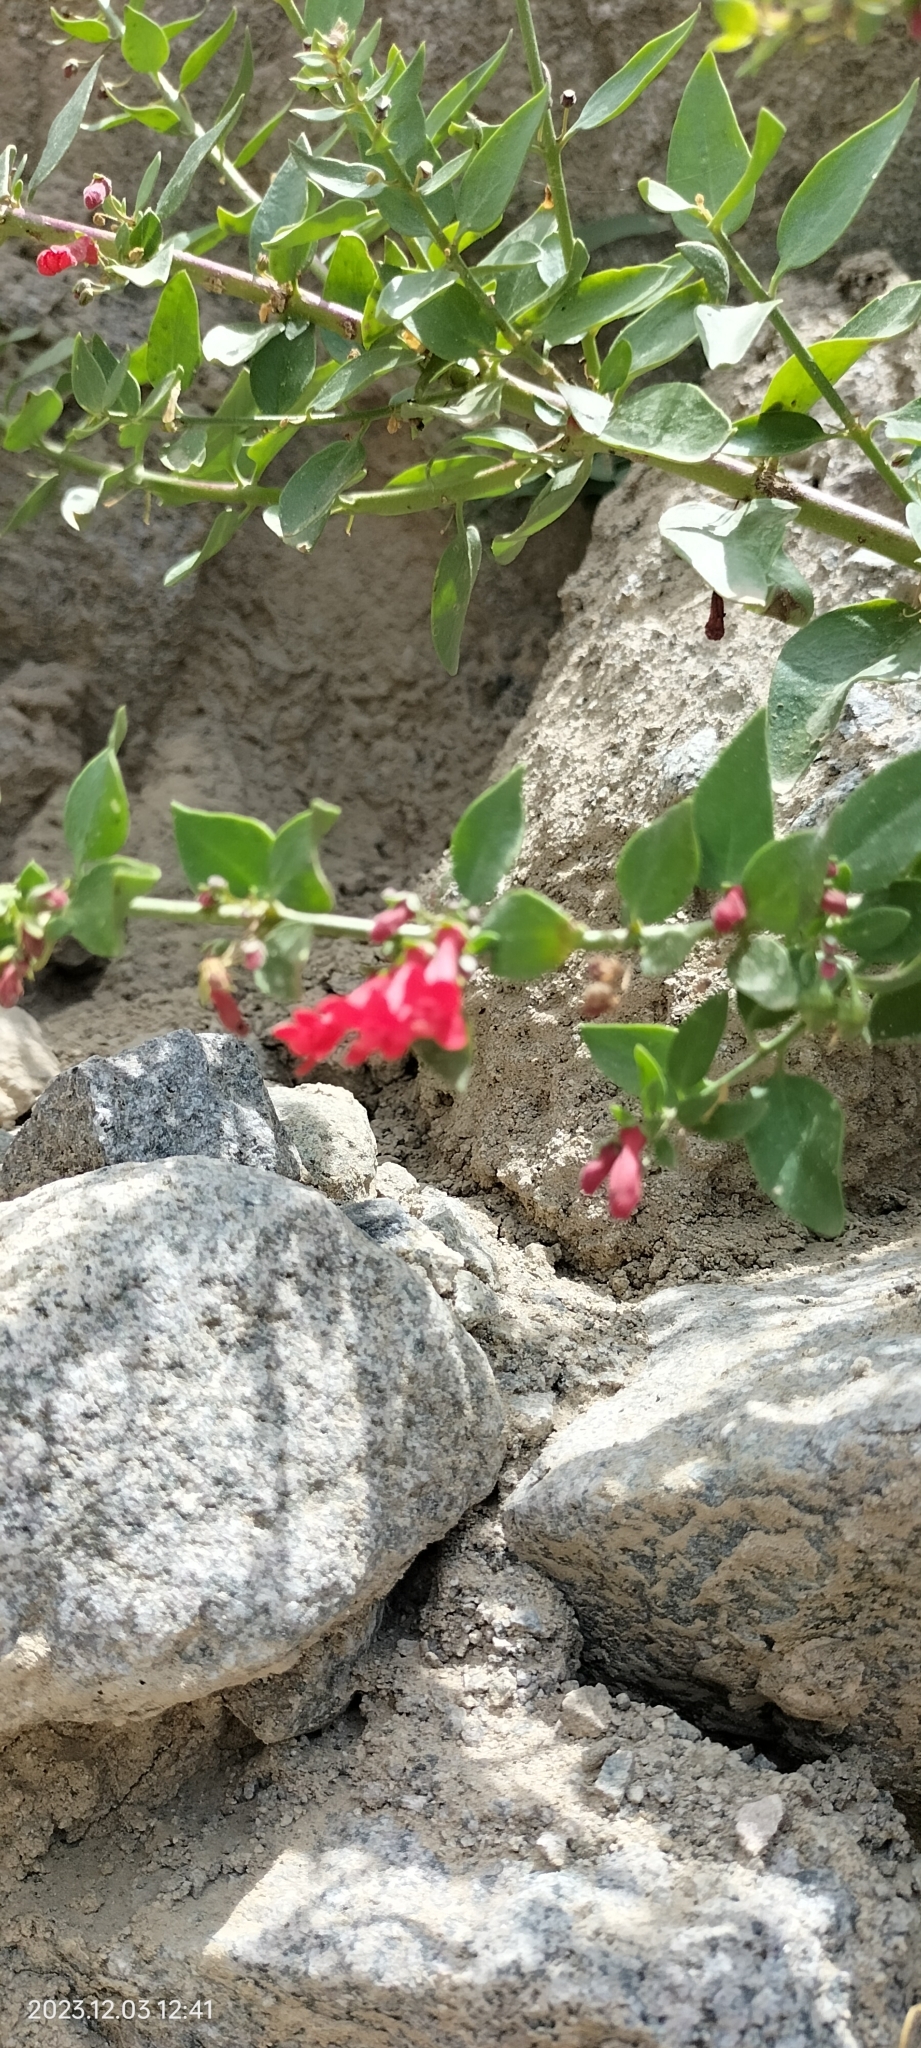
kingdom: Plantae
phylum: Tracheophyta
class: Magnoliopsida
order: Lamiales
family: Plantaginaceae
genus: Galvezia
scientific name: Galvezia fruticosa
